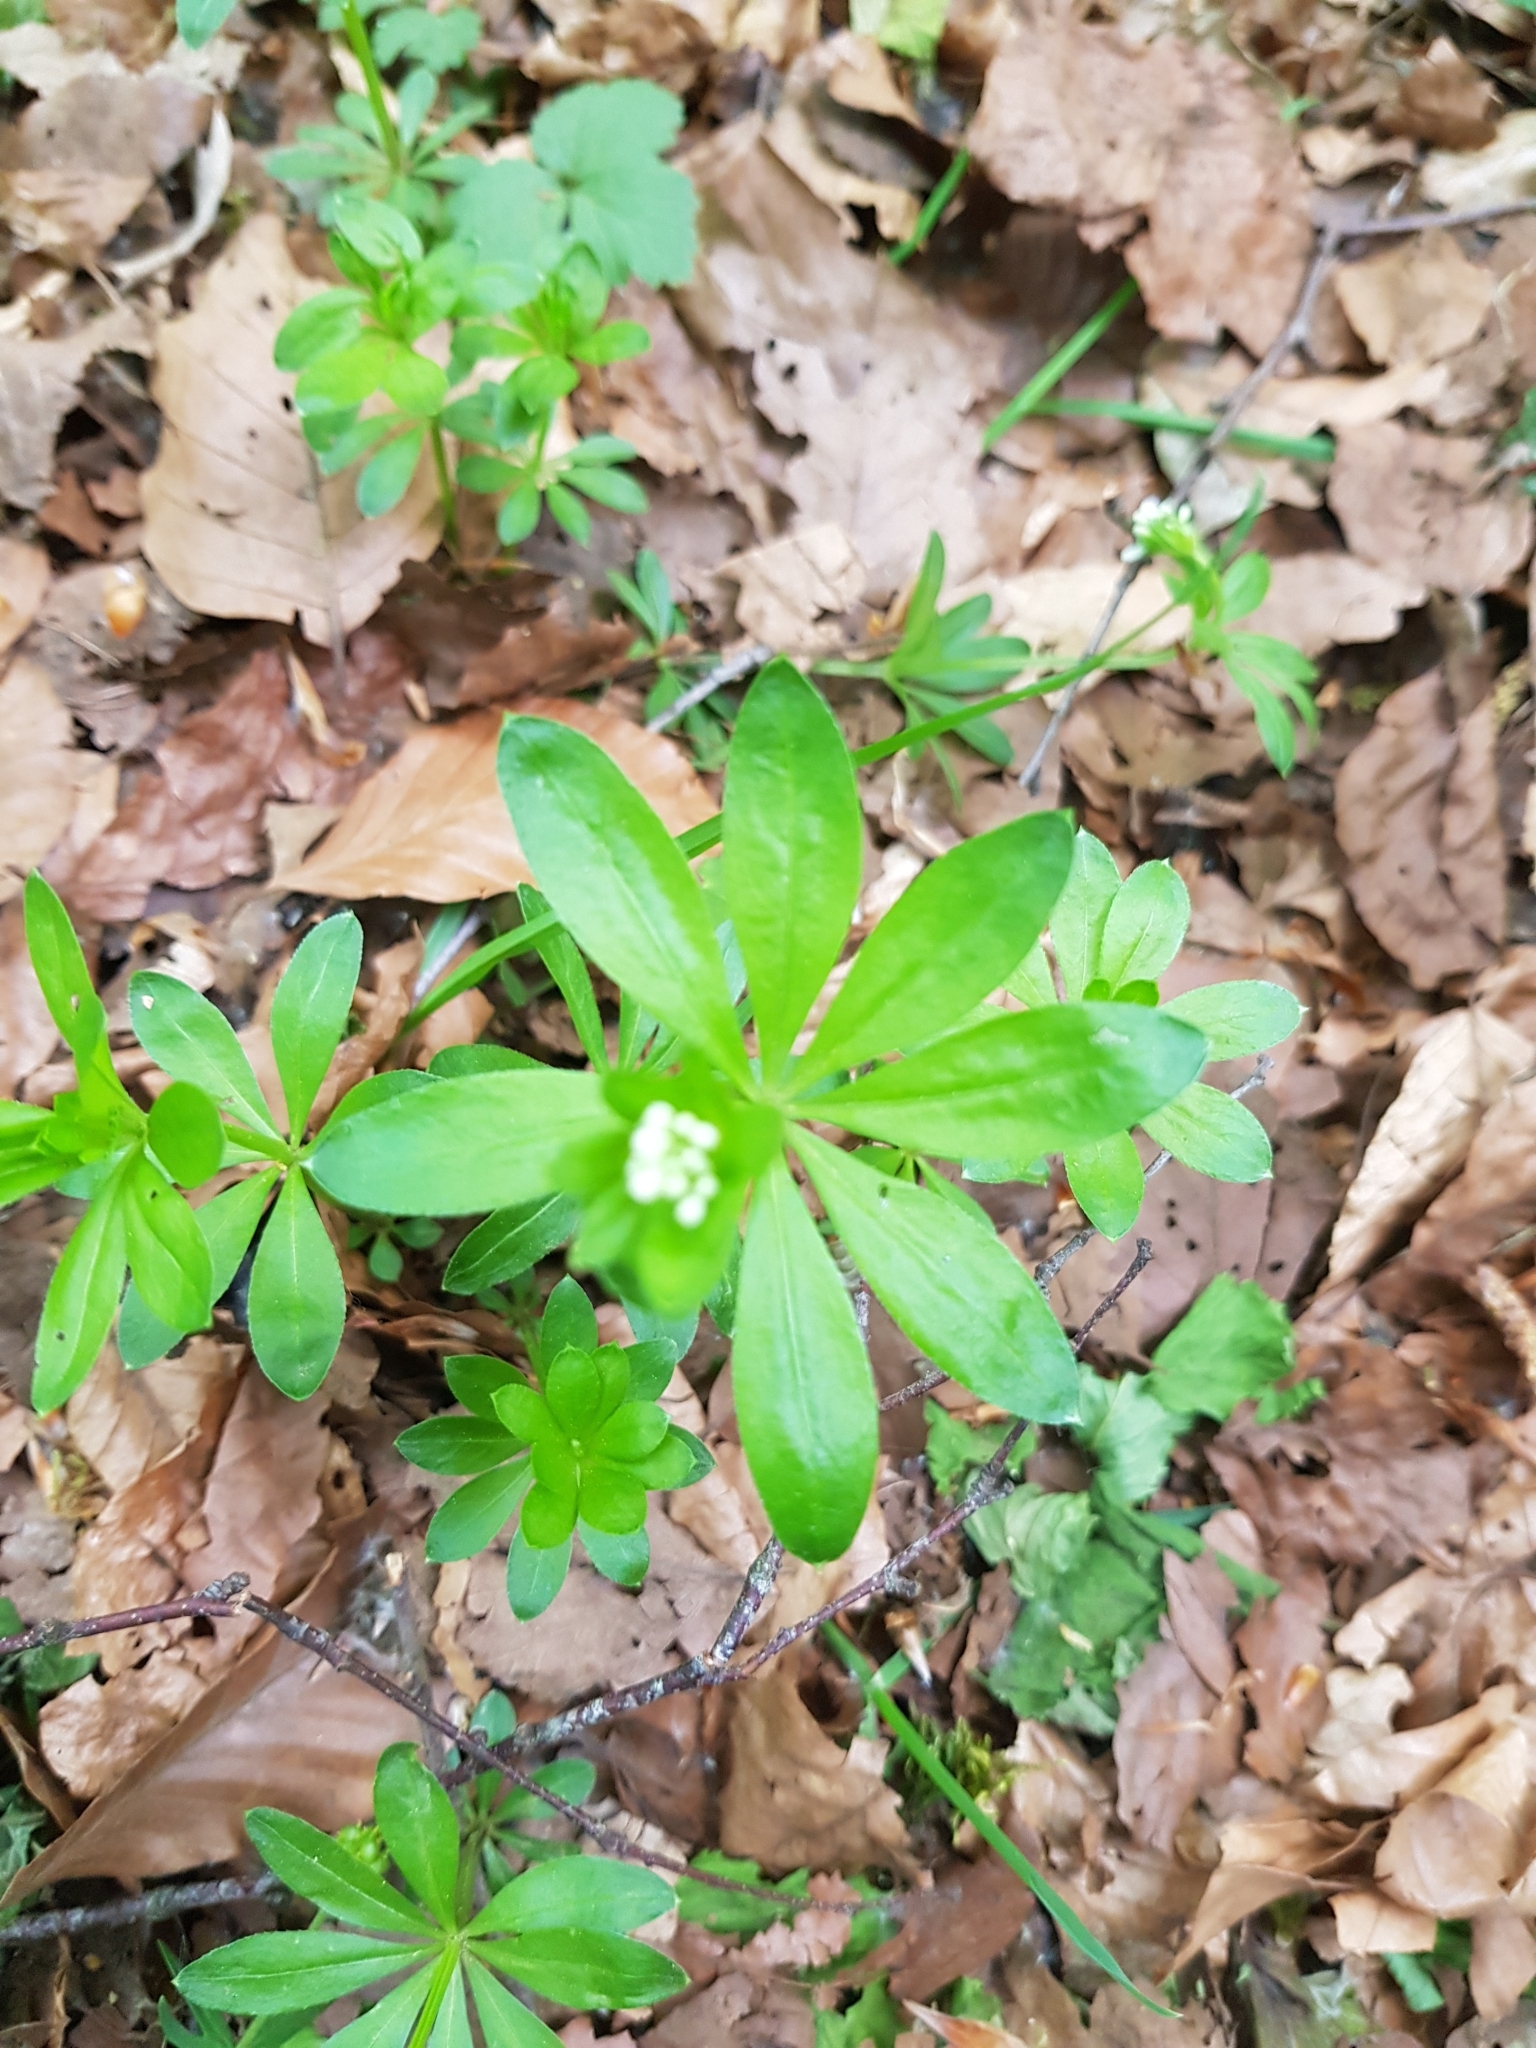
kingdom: Plantae
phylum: Tracheophyta
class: Magnoliopsida
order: Gentianales
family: Rubiaceae
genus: Galium
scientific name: Galium odoratum
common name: Sweet woodruff
